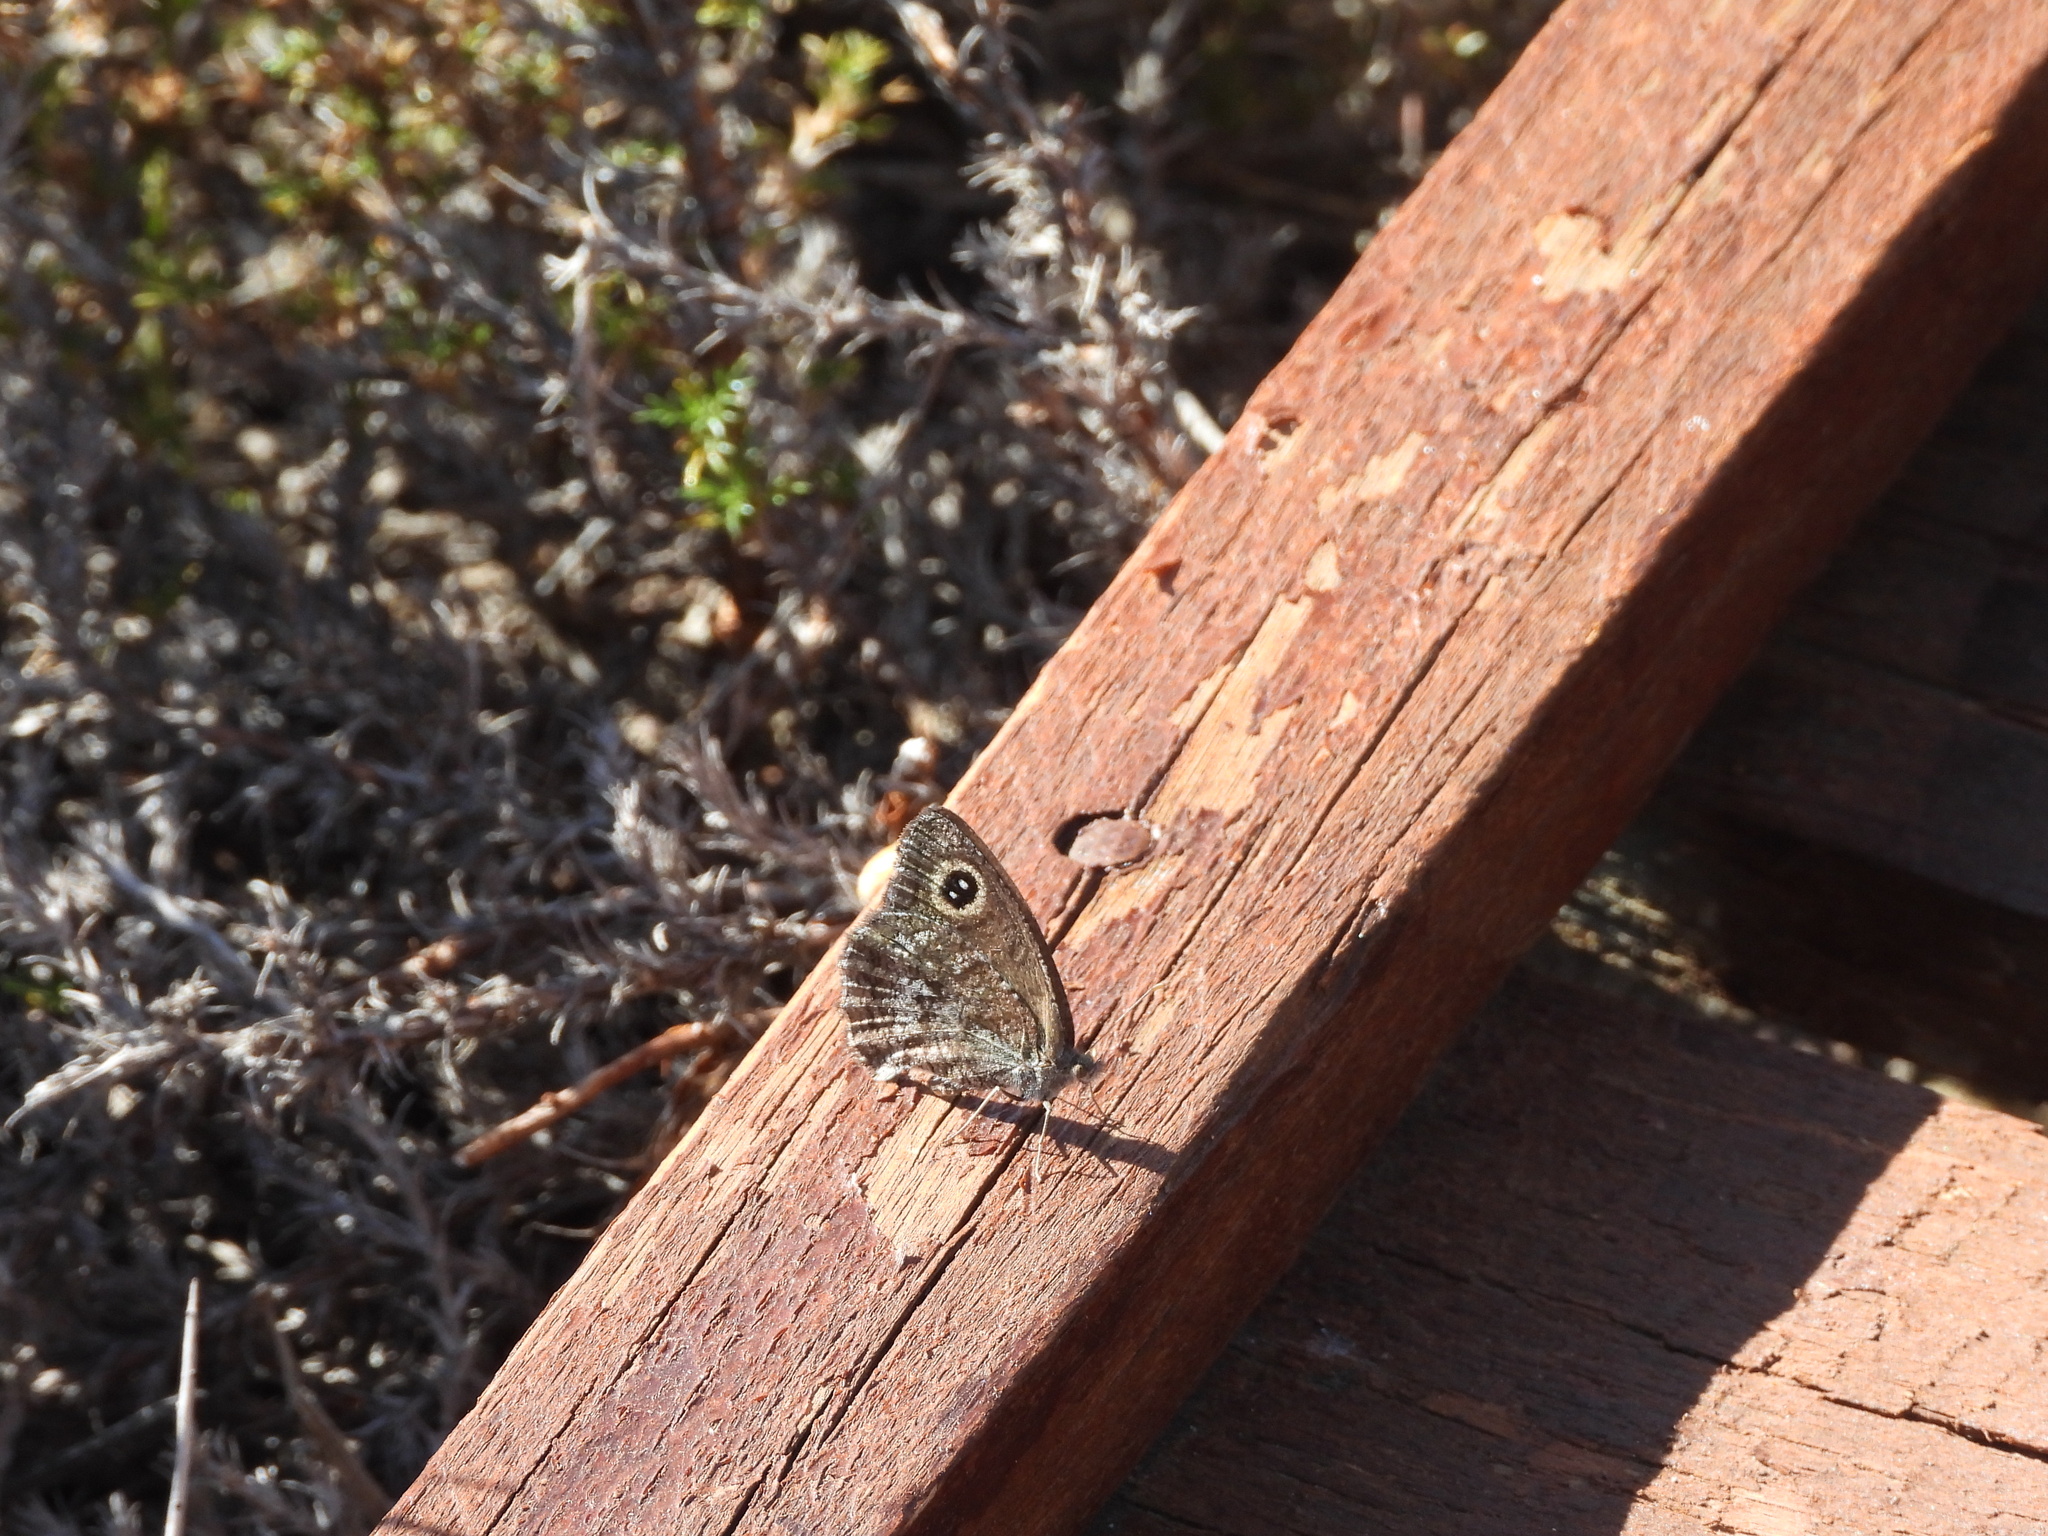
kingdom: Animalia
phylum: Arthropoda
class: Insecta
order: Lepidoptera
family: Nymphalidae
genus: Pampasatyrus
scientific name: Pampasatyrus yacantoensis
